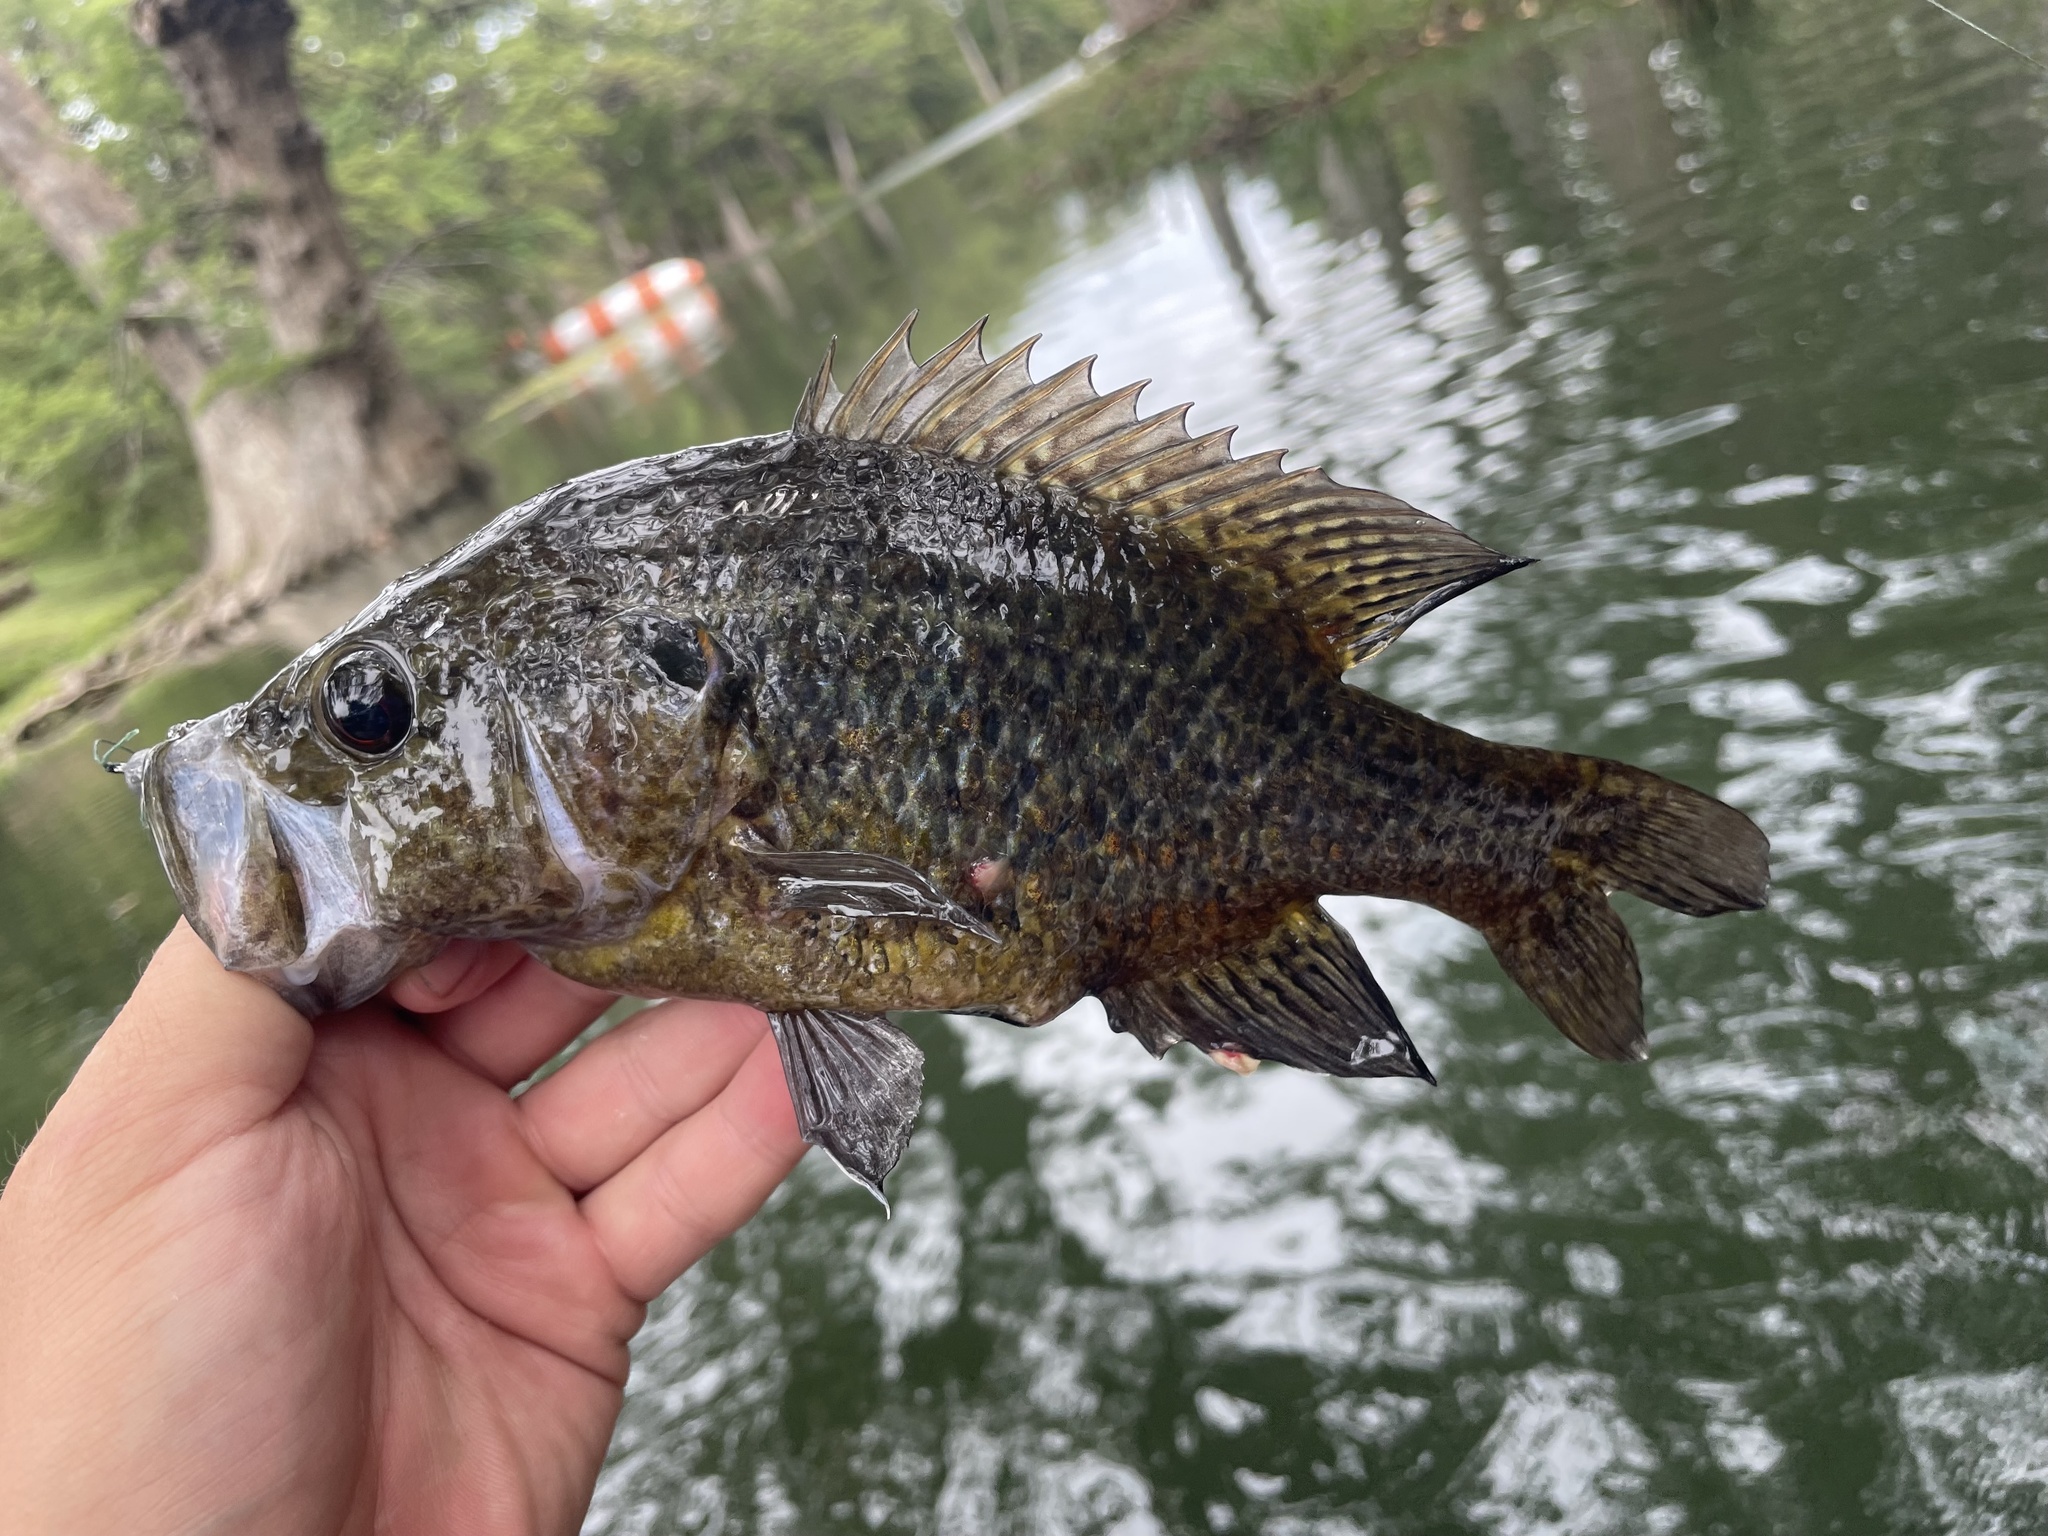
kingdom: Animalia
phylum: Chordata
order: Perciformes
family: Centrarchidae
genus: Lepomis
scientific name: Lepomis gulosus
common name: Warmouth
